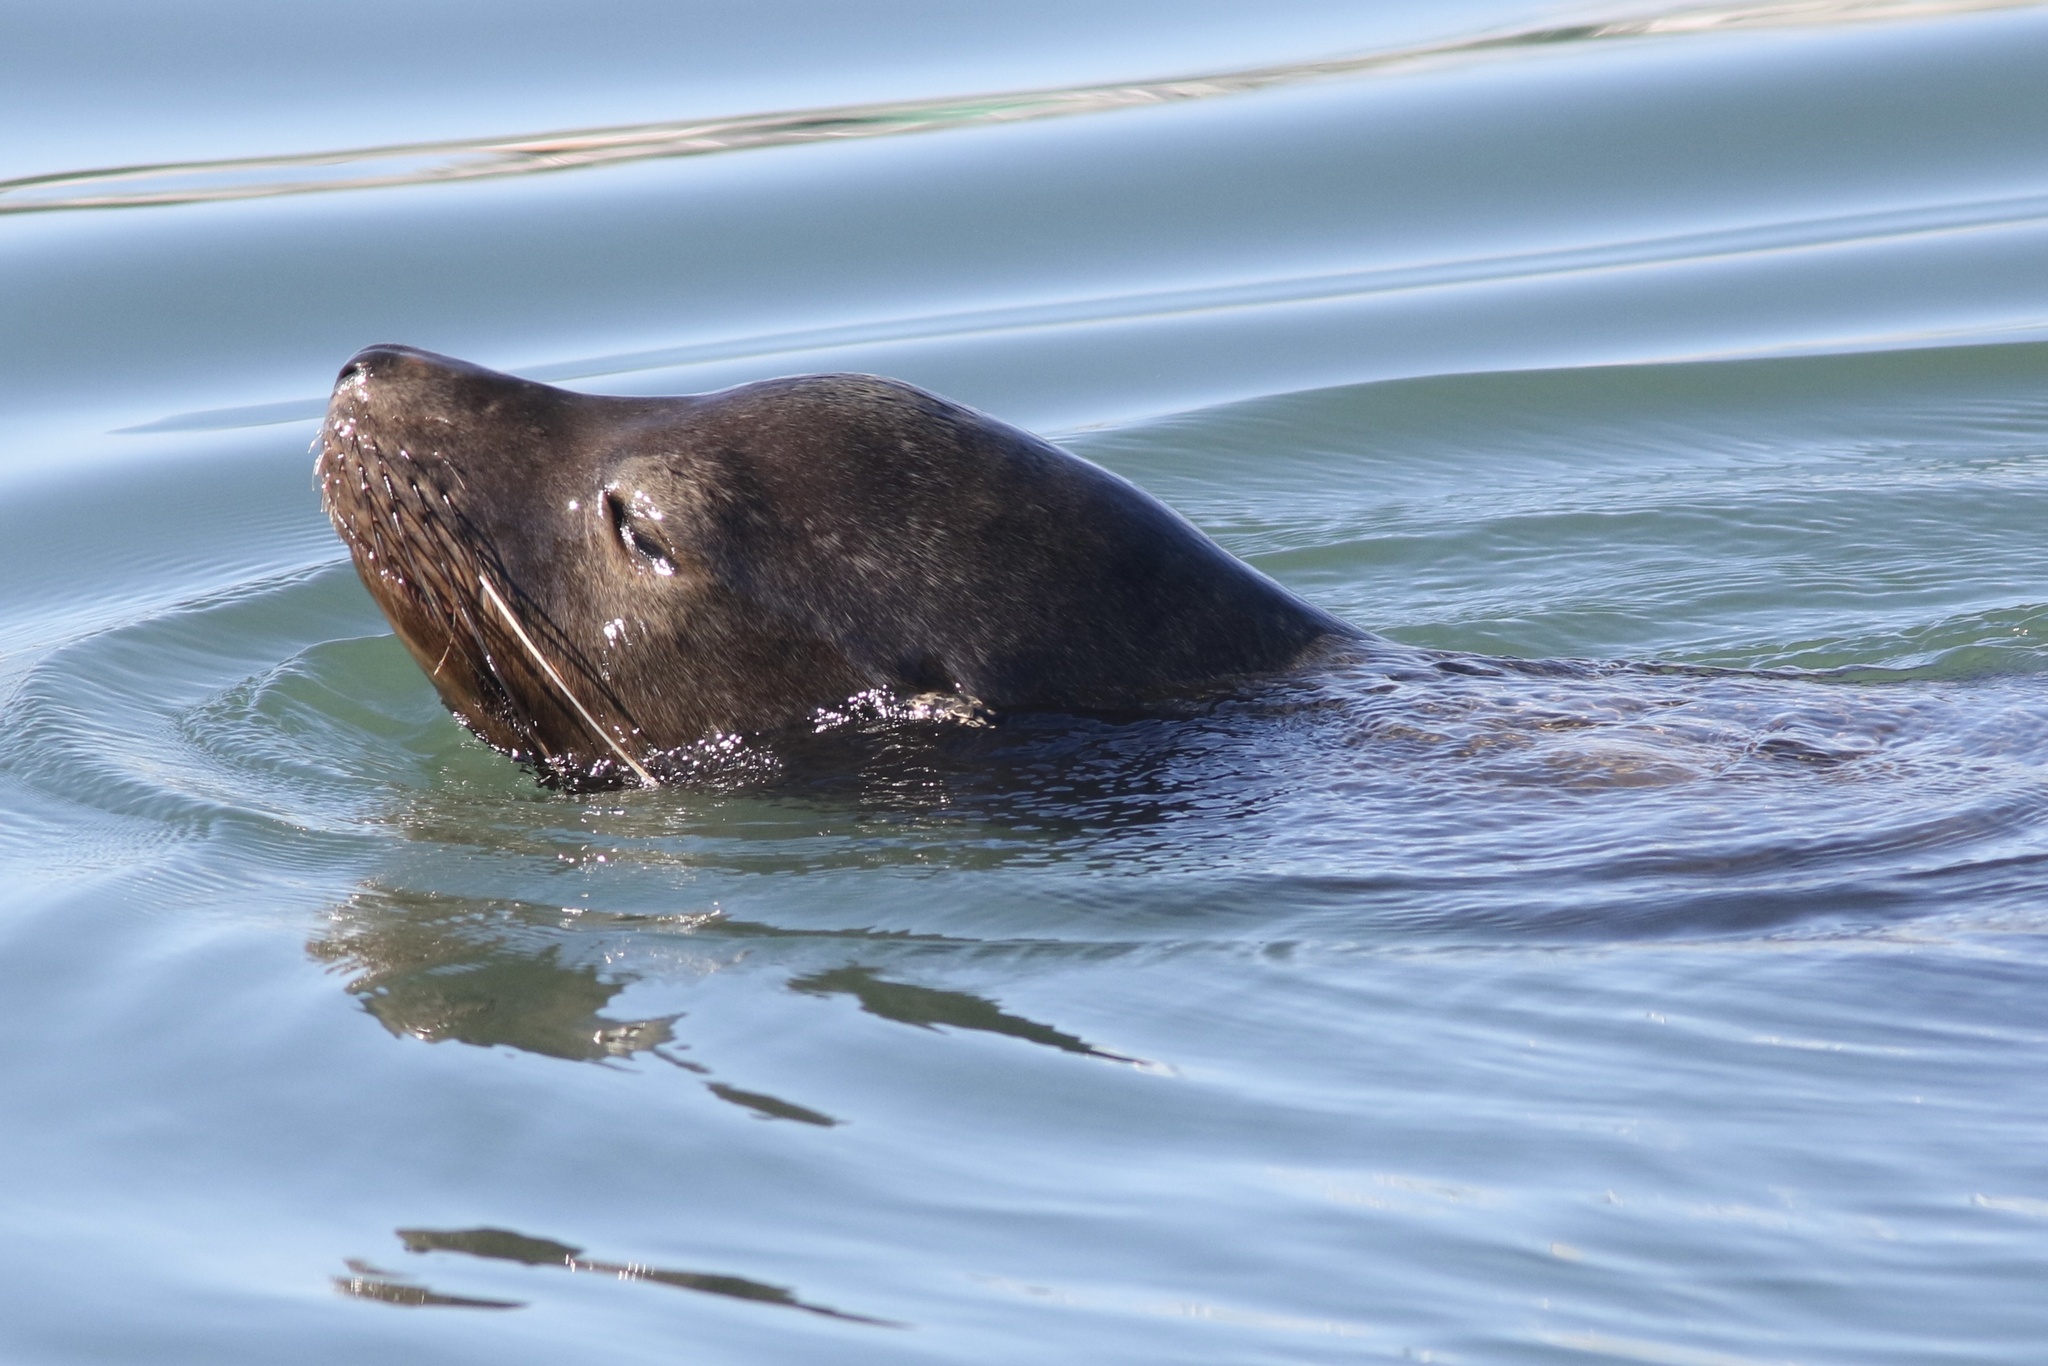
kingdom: Animalia
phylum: Chordata
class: Mammalia
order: Carnivora
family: Otariidae
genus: Zalophus
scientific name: Zalophus californianus
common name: California sea lion
